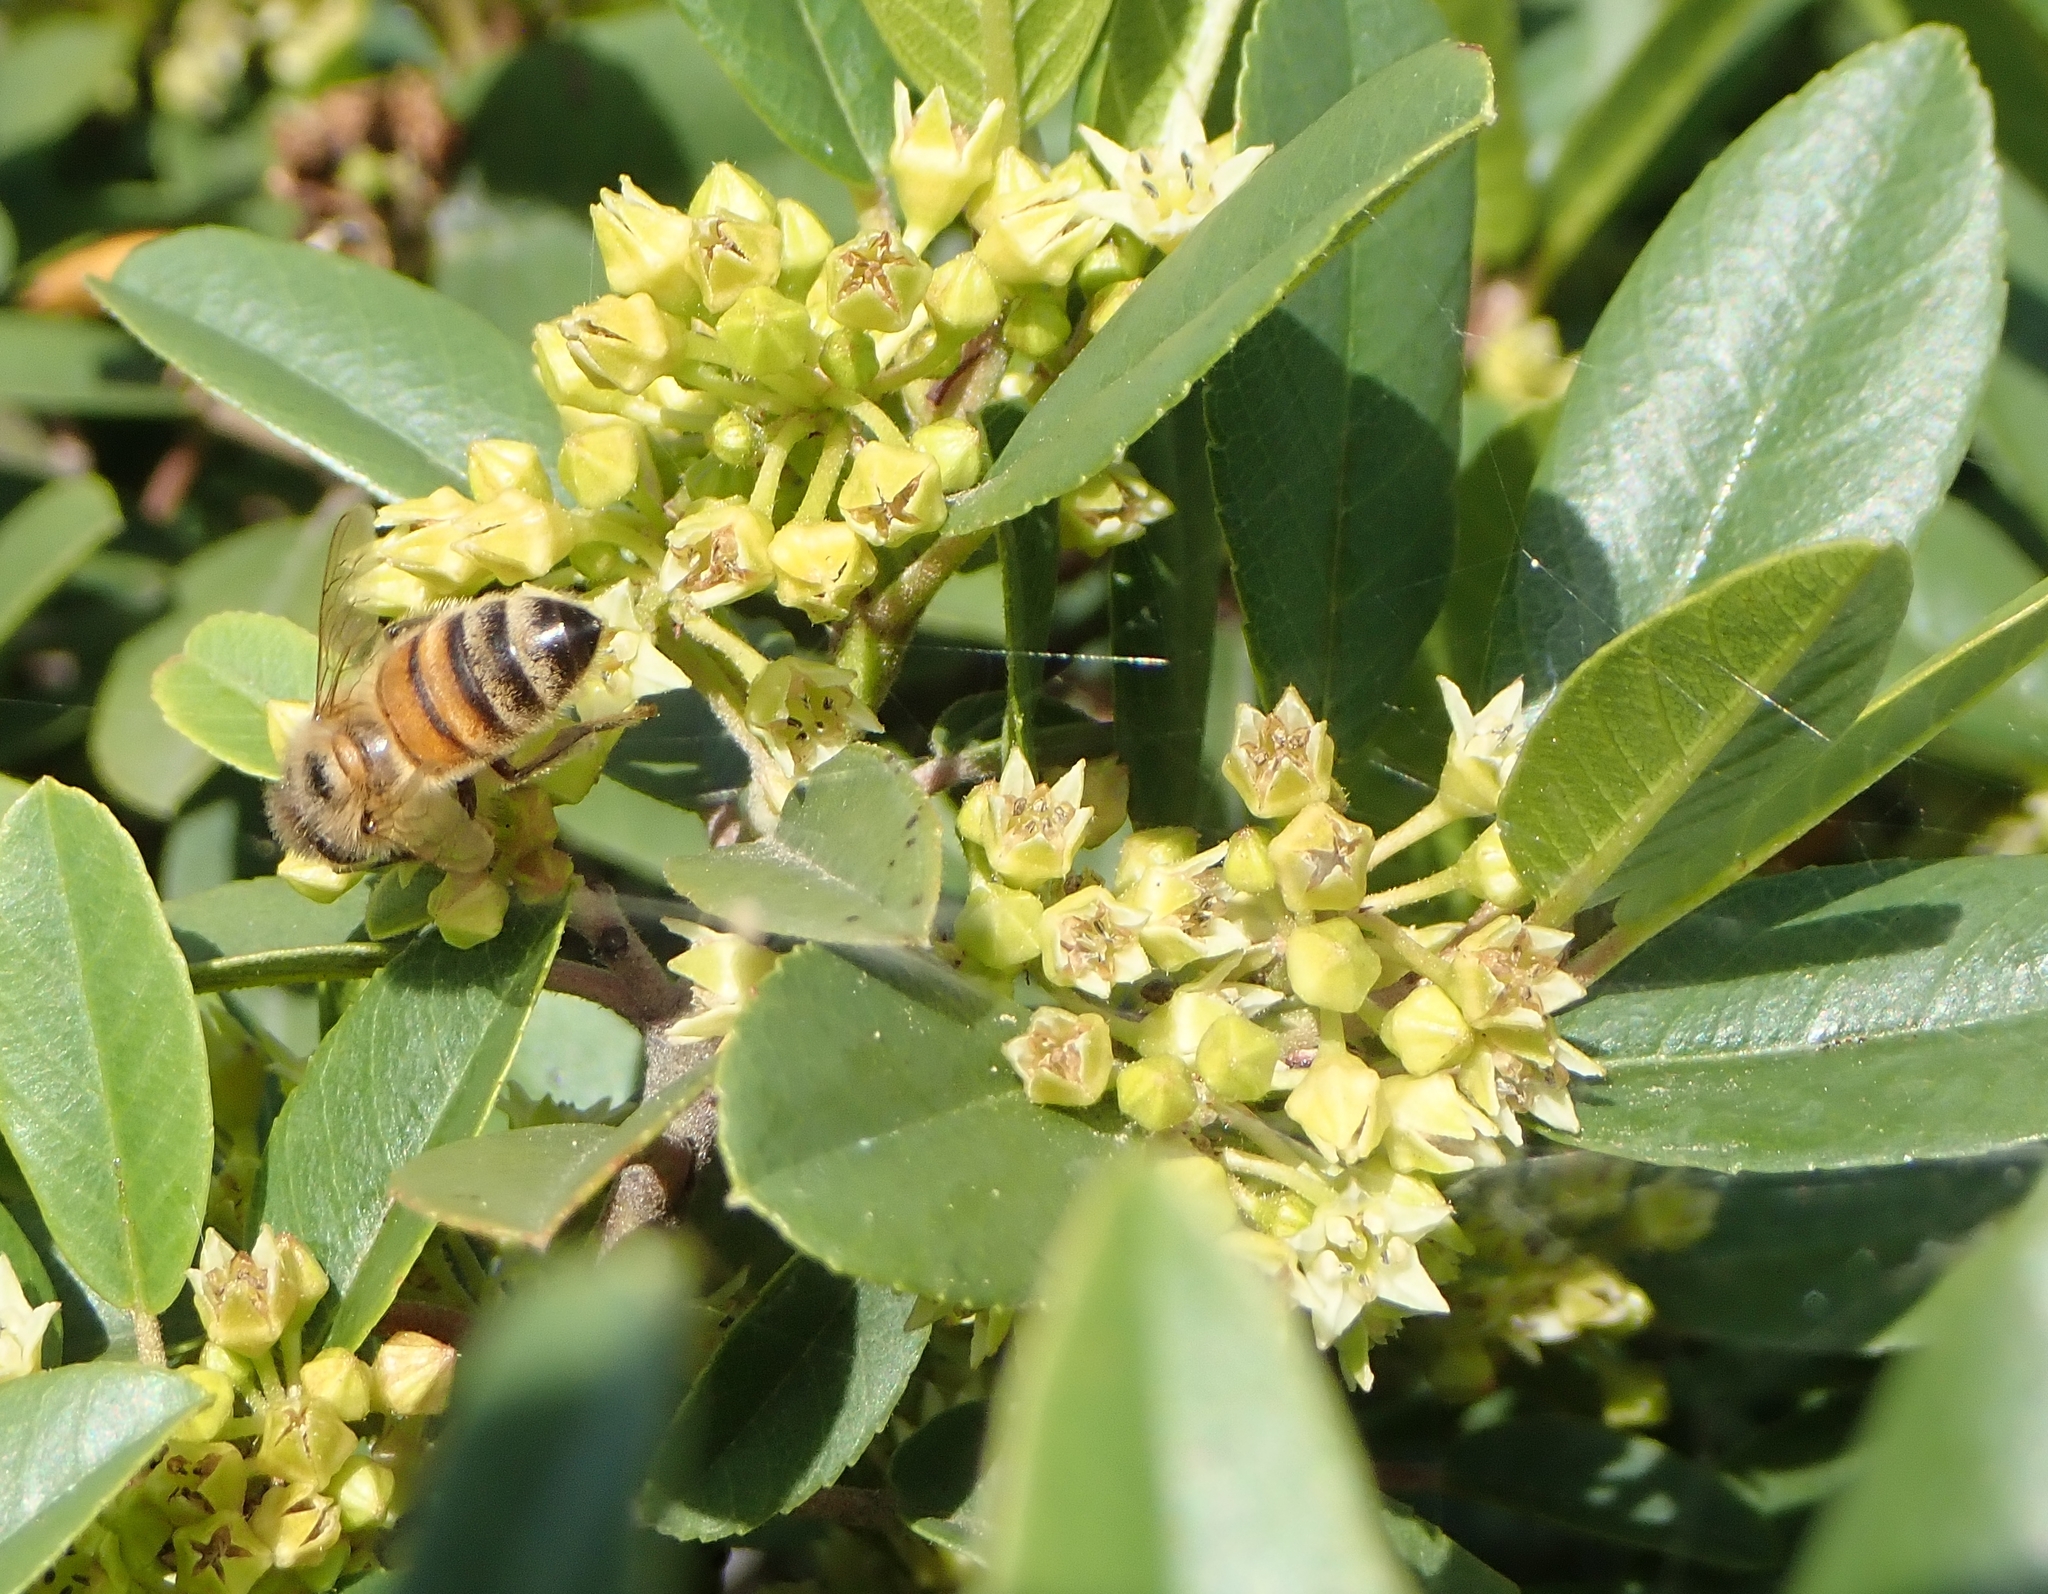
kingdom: Animalia
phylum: Arthropoda
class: Insecta
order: Hymenoptera
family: Apidae
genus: Apis
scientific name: Apis mellifera
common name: Honey bee
